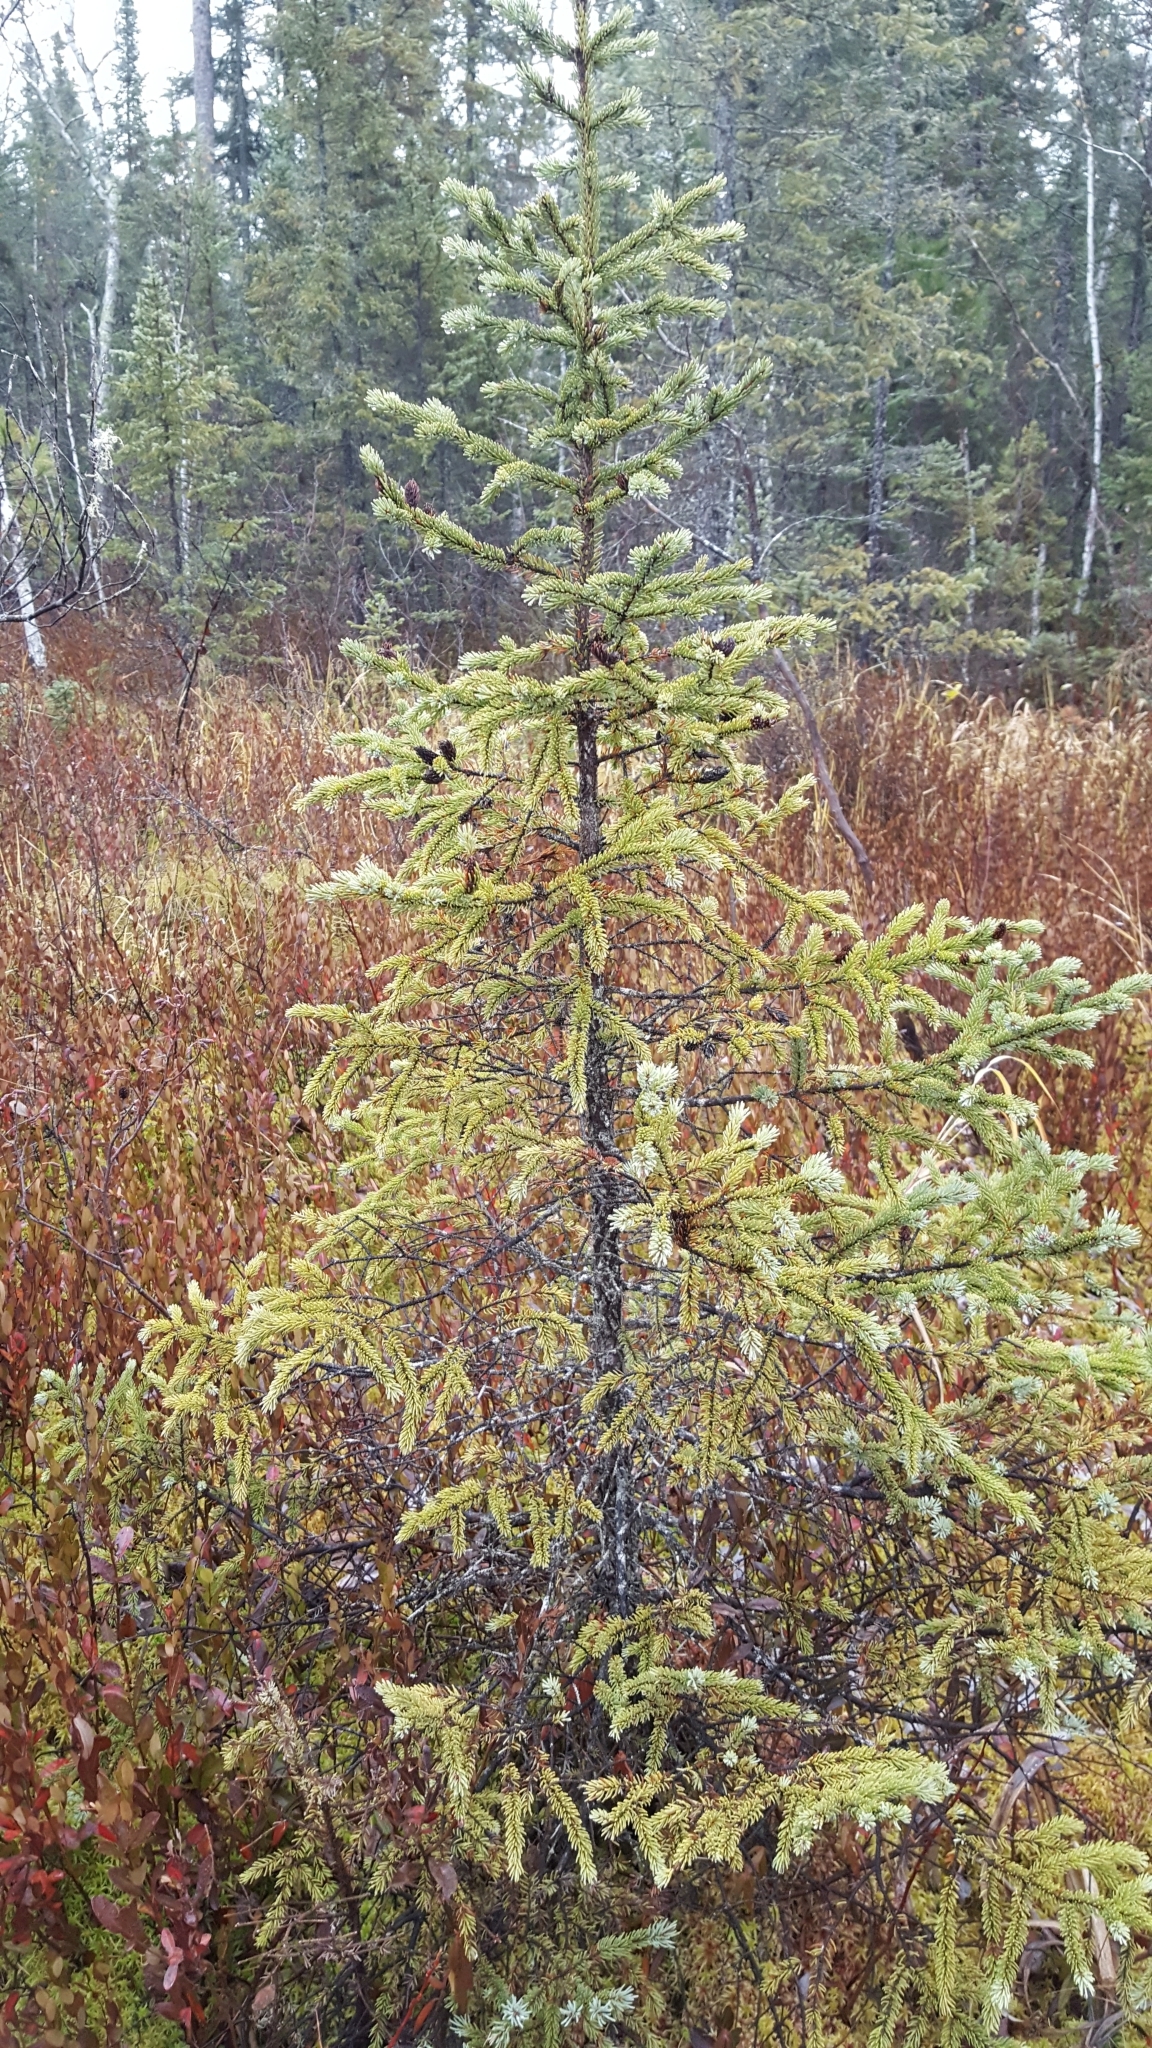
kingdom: Plantae
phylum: Tracheophyta
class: Pinopsida
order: Pinales
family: Pinaceae
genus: Picea
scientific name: Picea mariana
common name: Black spruce
